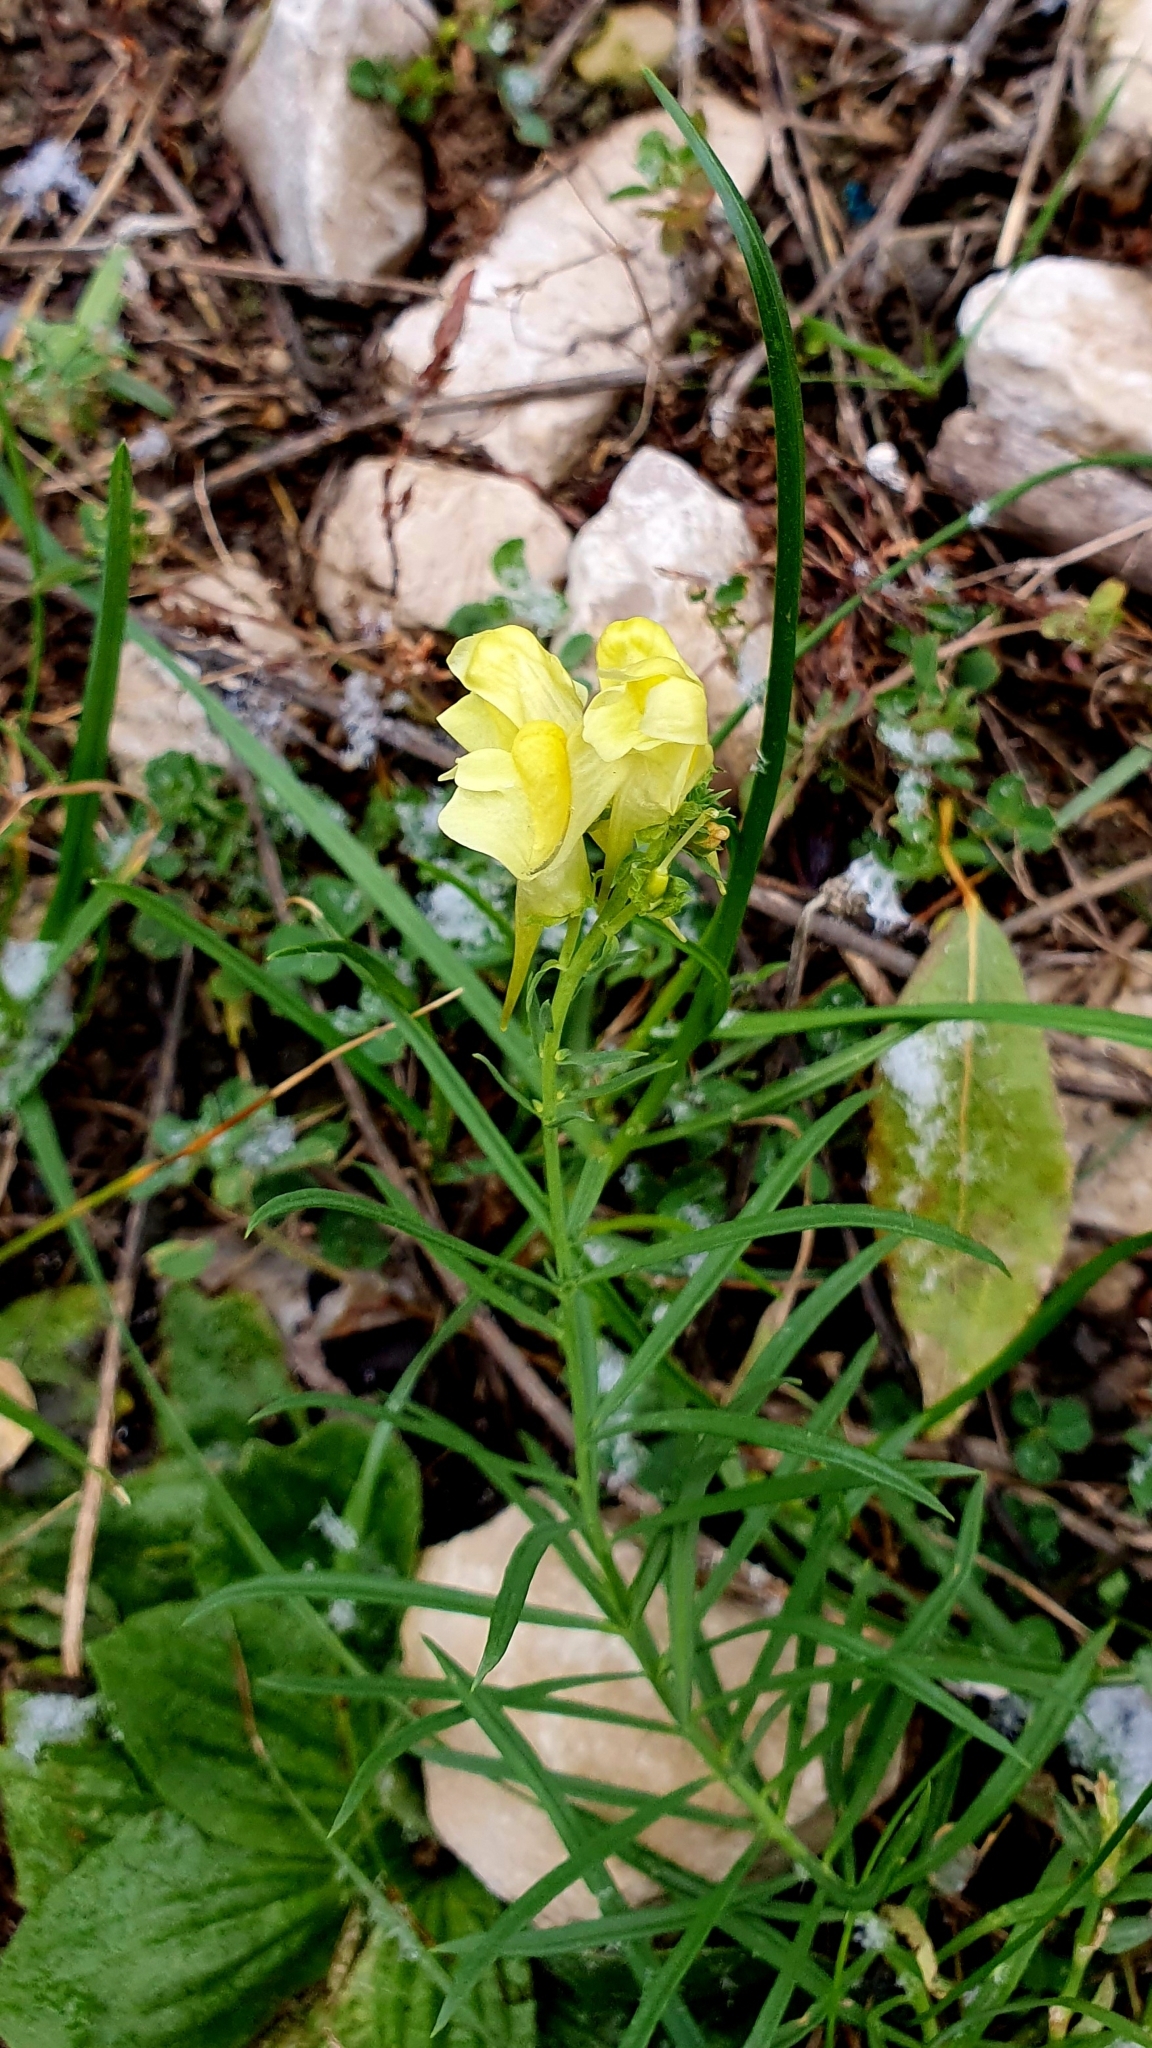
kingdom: Plantae
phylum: Tracheophyta
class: Magnoliopsida
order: Lamiales
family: Plantaginaceae
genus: Linaria
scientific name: Linaria vulgaris
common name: Butter and eggs
